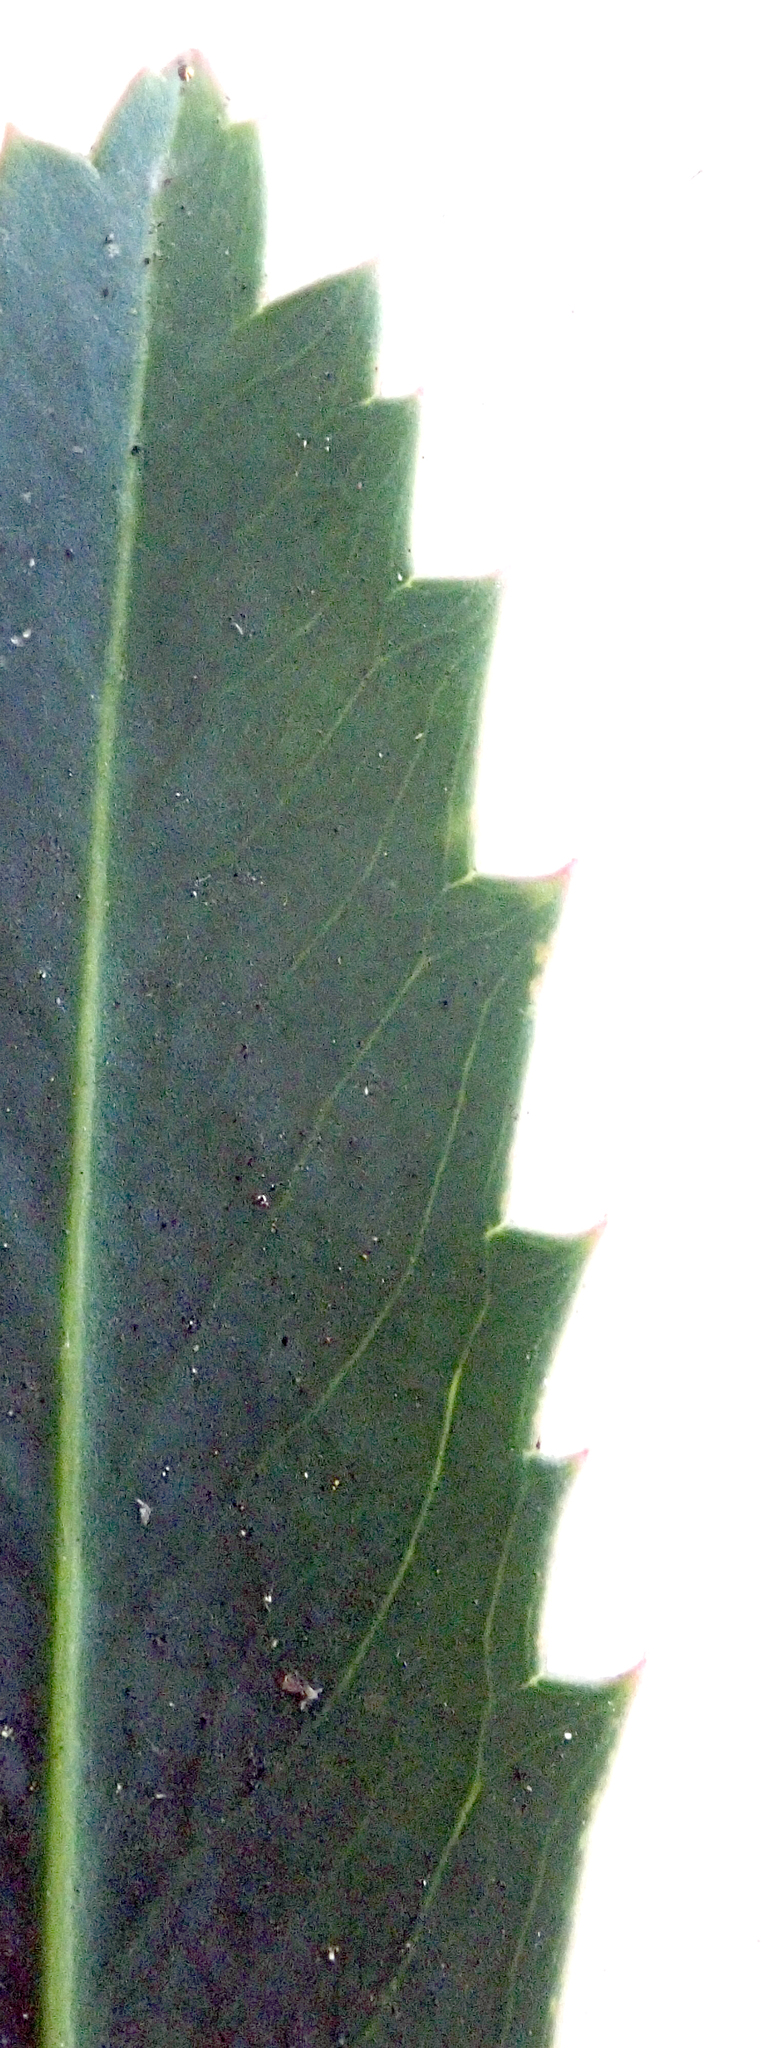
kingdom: Plantae
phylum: Tracheophyta
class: Magnoliopsida
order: Apiales
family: Araliaceae
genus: Pseudopanax
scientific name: Pseudopanax crassifolius
